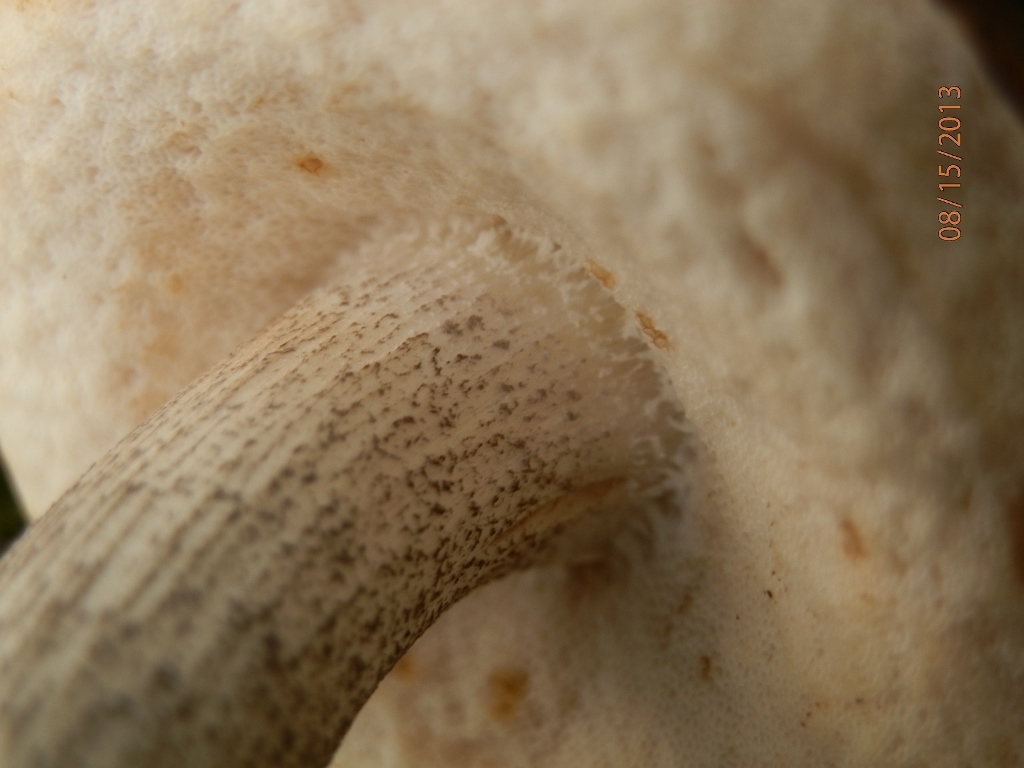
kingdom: Fungi
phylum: Basidiomycota
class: Agaricomycetes
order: Boletales
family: Boletaceae
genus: Leccinum
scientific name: Leccinum scabrum
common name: Blushing bolete
